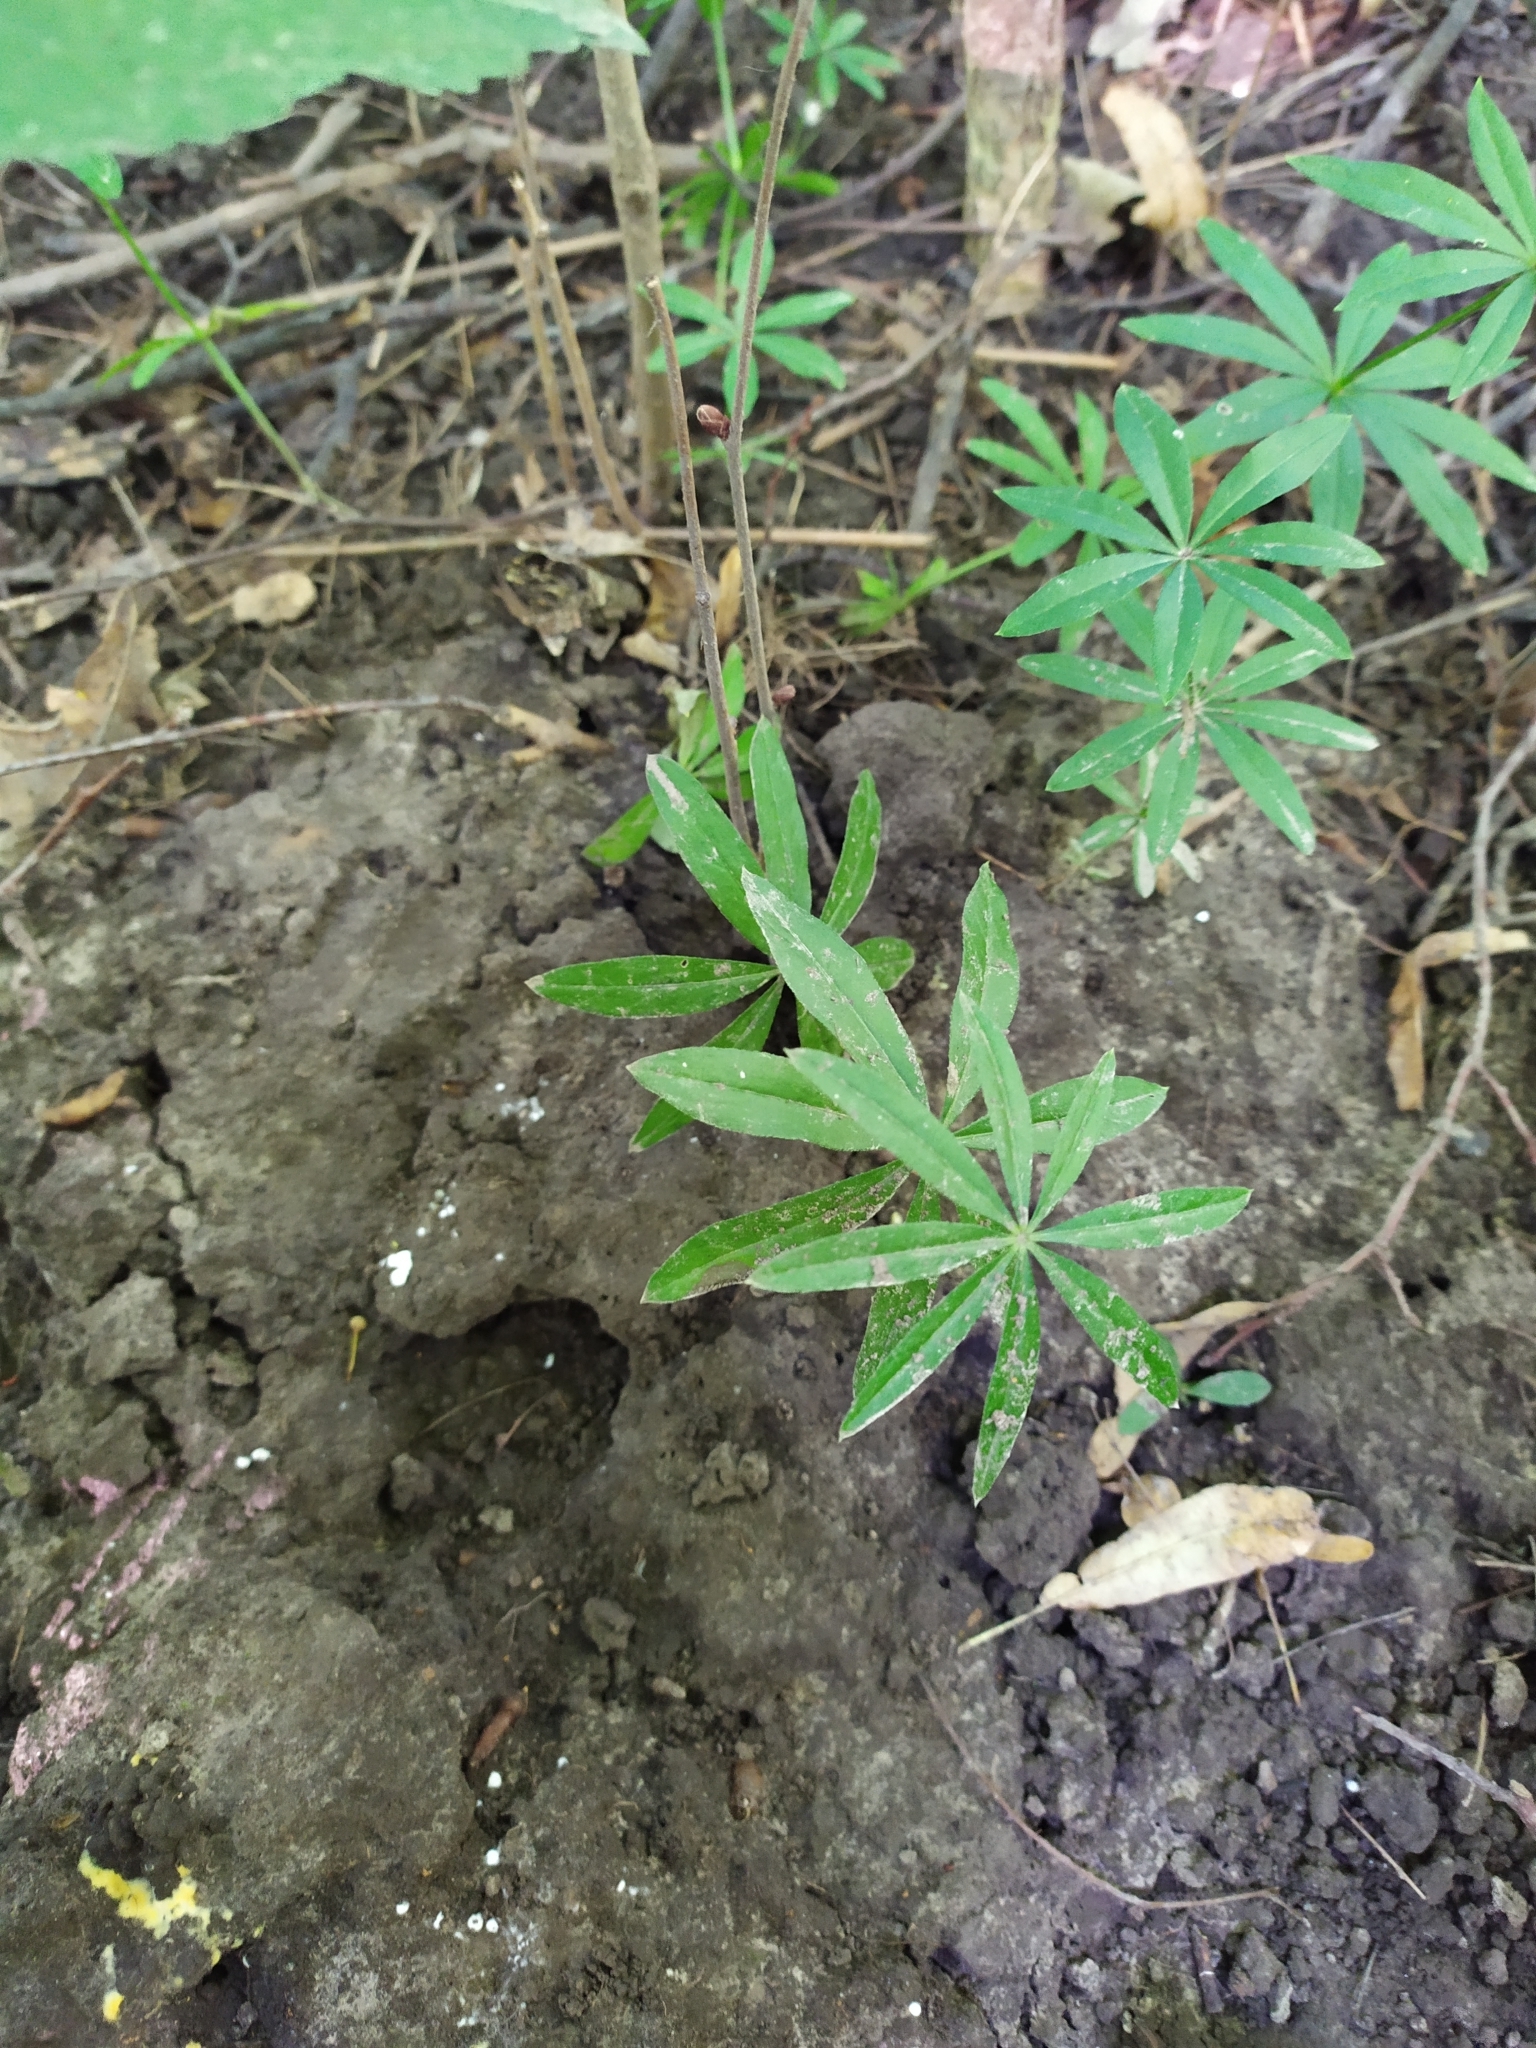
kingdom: Plantae
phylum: Tracheophyta
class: Magnoliopsida
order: Gentianales
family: Rubiaceae
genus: Galium
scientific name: Galium odoratum
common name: Sweet woodruff
